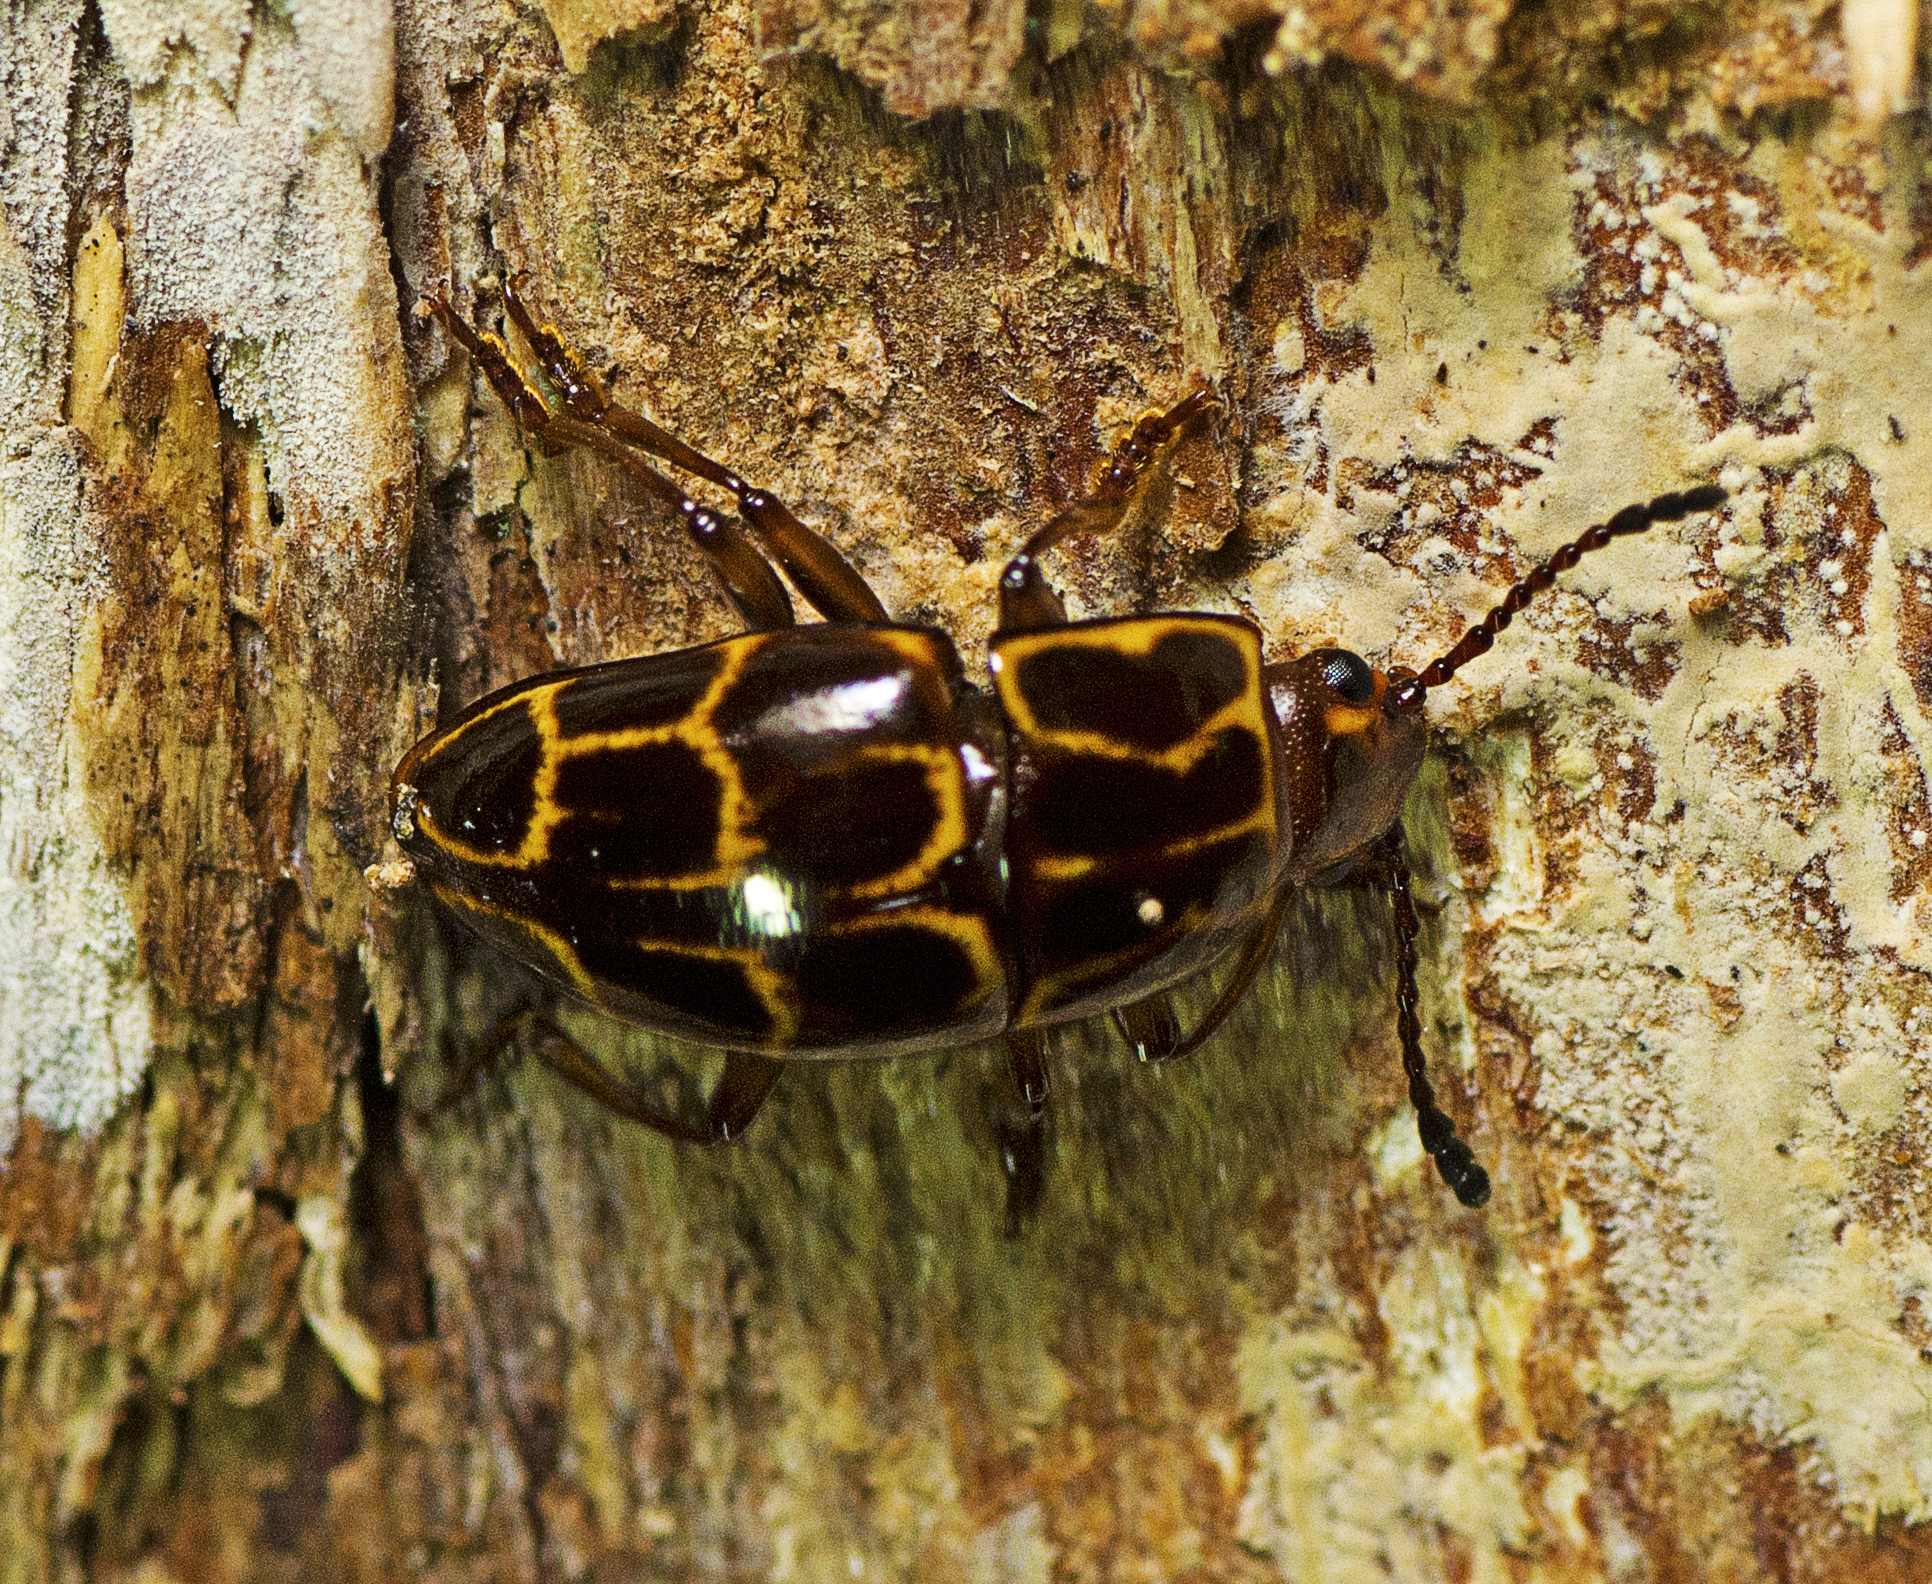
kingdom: Animalia
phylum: Arthropoda
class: Insecta
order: Coleoptera
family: Erotylidae
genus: Episcaphula
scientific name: Episcaphula tamburinea
